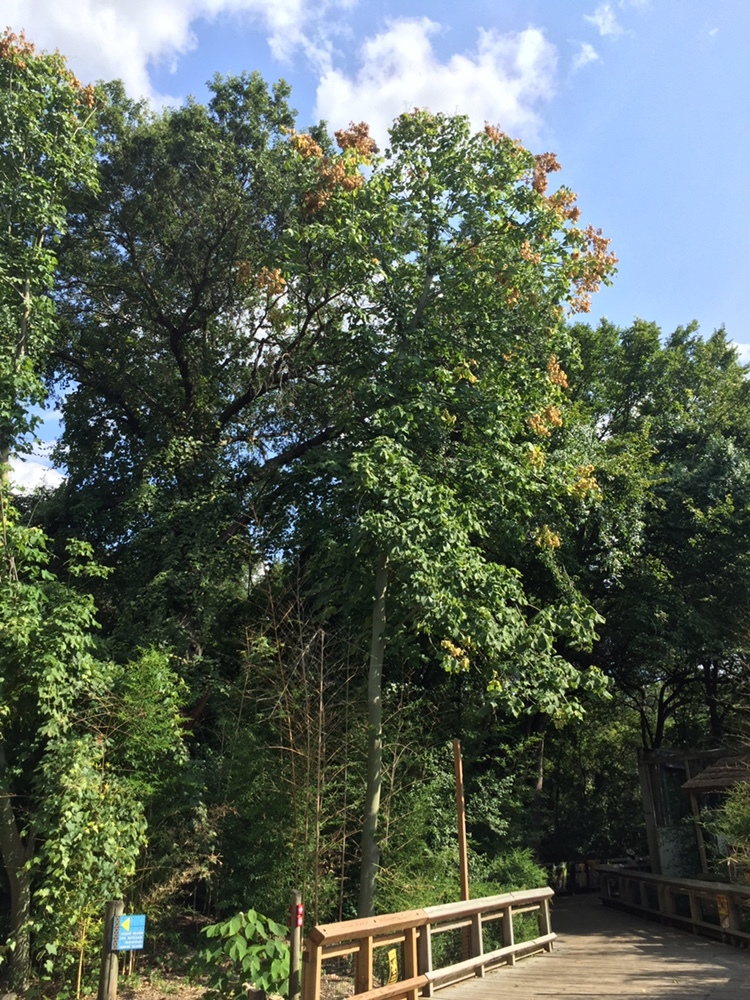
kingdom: Plantae
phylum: Tracheophyta
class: Magnoliopsida
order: Malvales
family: Malvaceae
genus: Firmiana
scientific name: Firmiana simplex
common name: Chinese parasoltree
